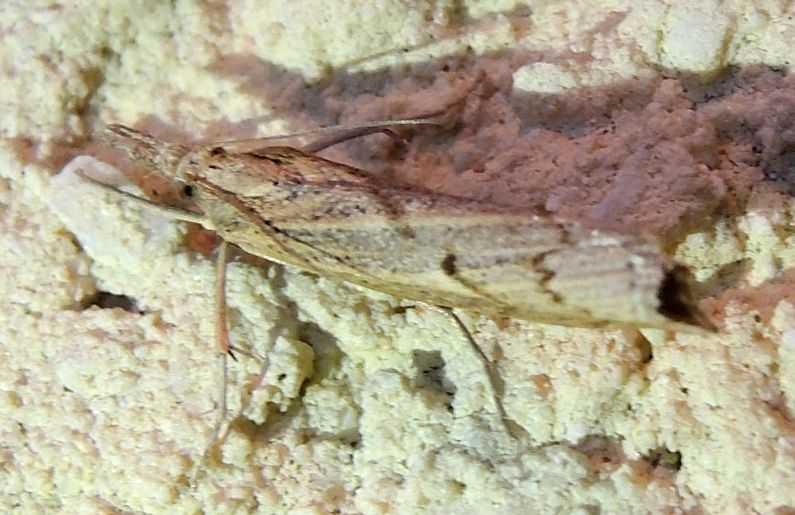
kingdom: Animalia
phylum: Arthropoda
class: Insecta
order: Lepidoptera
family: Crambidae
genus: Pediasia
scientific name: Pediasia contaminella
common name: Waste grass-veneer
